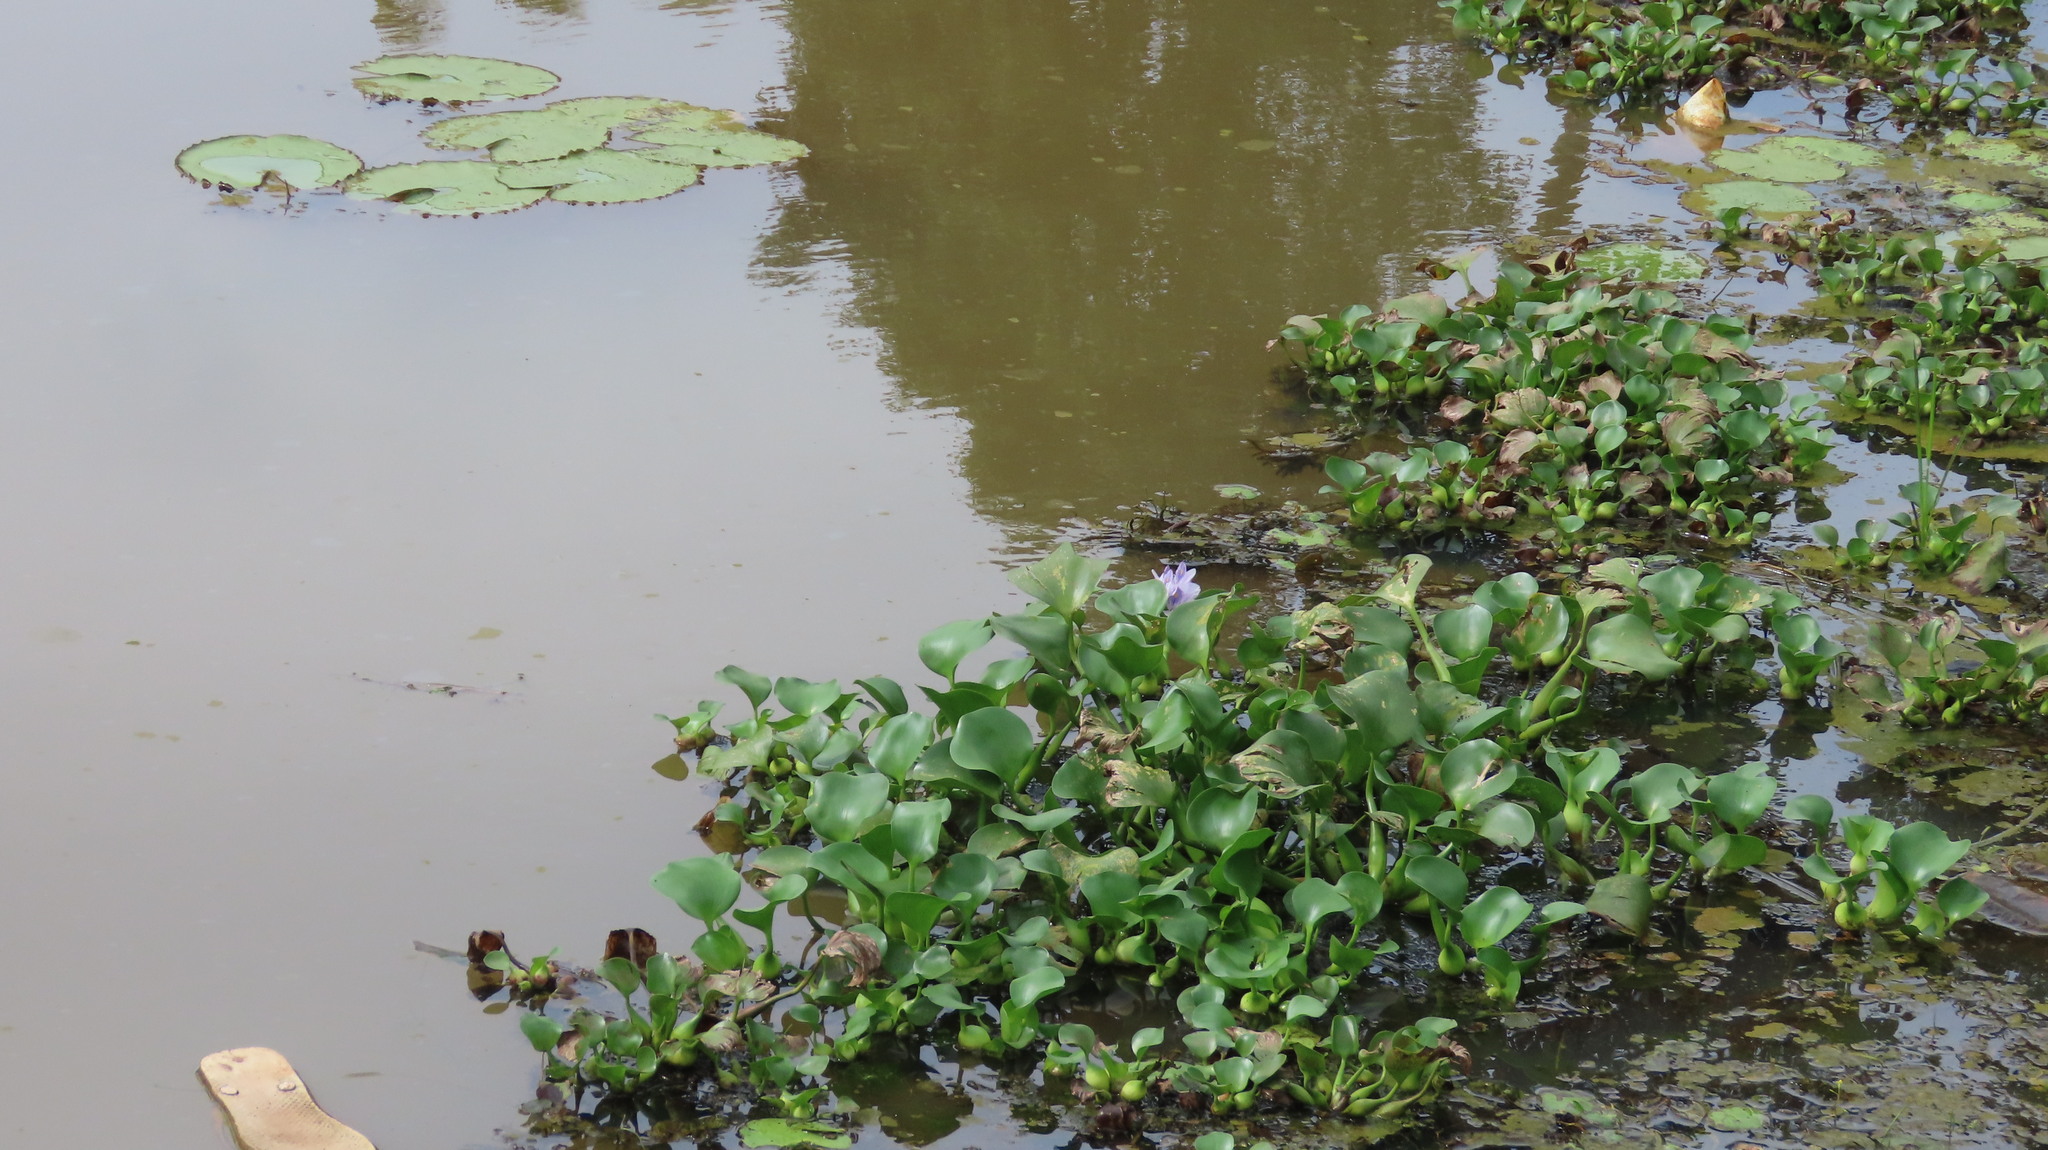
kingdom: Plantae
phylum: Tracheophyta
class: Liliopsida
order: Commelinales
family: Pontederiaceae
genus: Pontederia
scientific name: Pontederia crassipes
